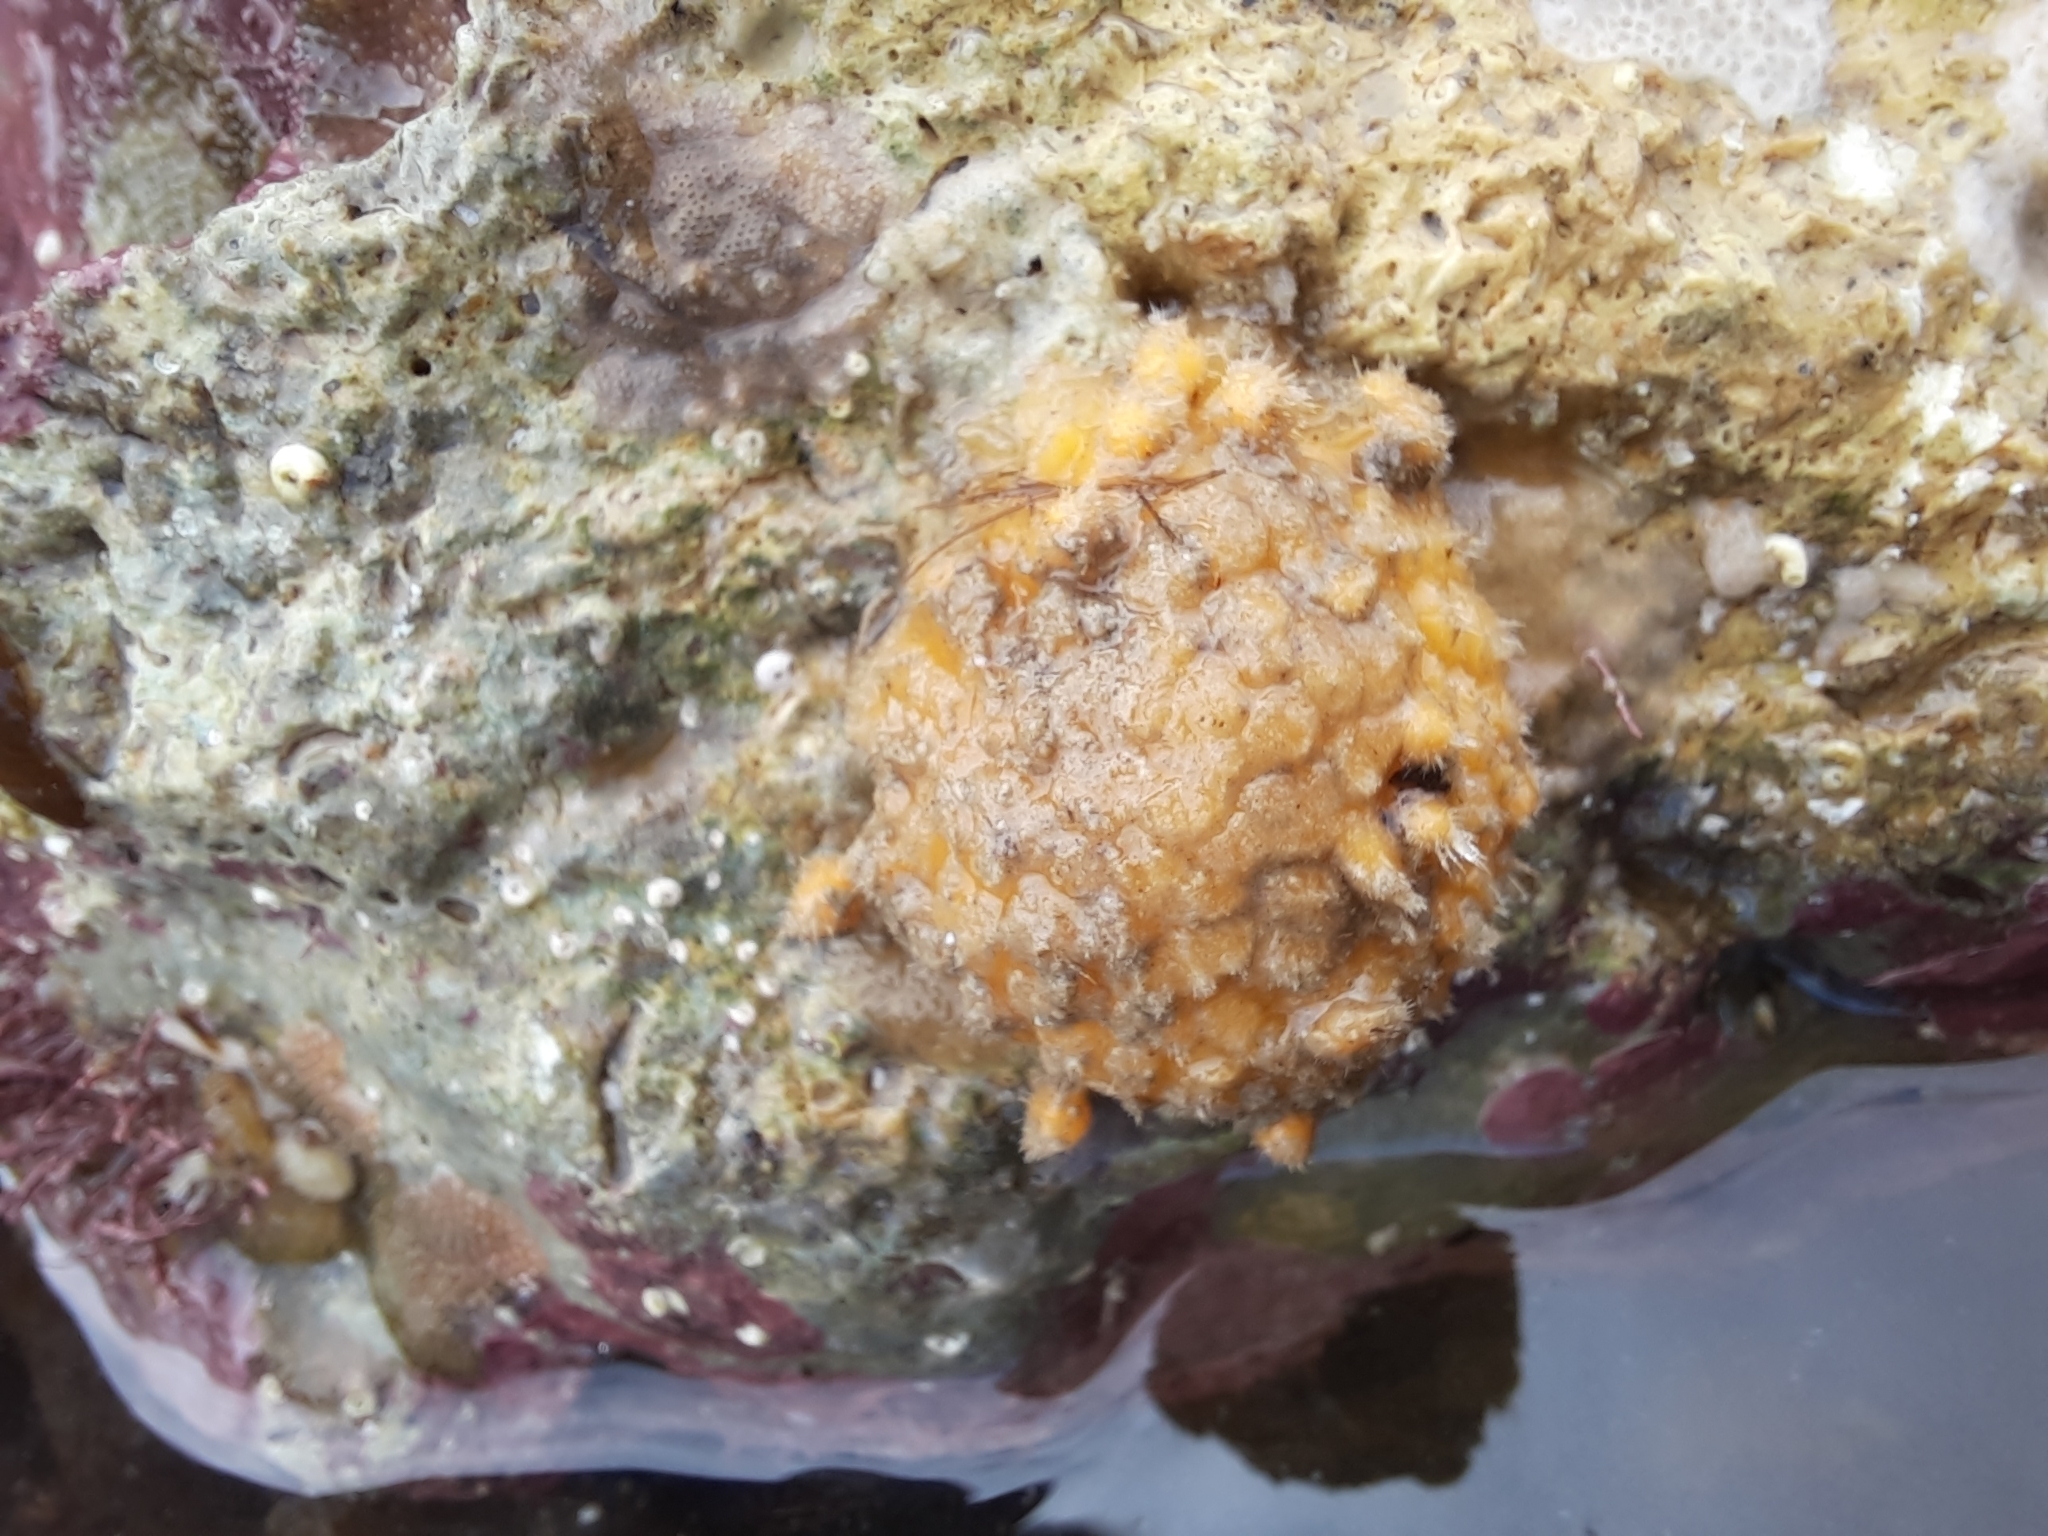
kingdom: Animalia
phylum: Porifera
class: Demospongiae
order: Tethyida
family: Tethyidae
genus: Tethya
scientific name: Tethya burtoni
